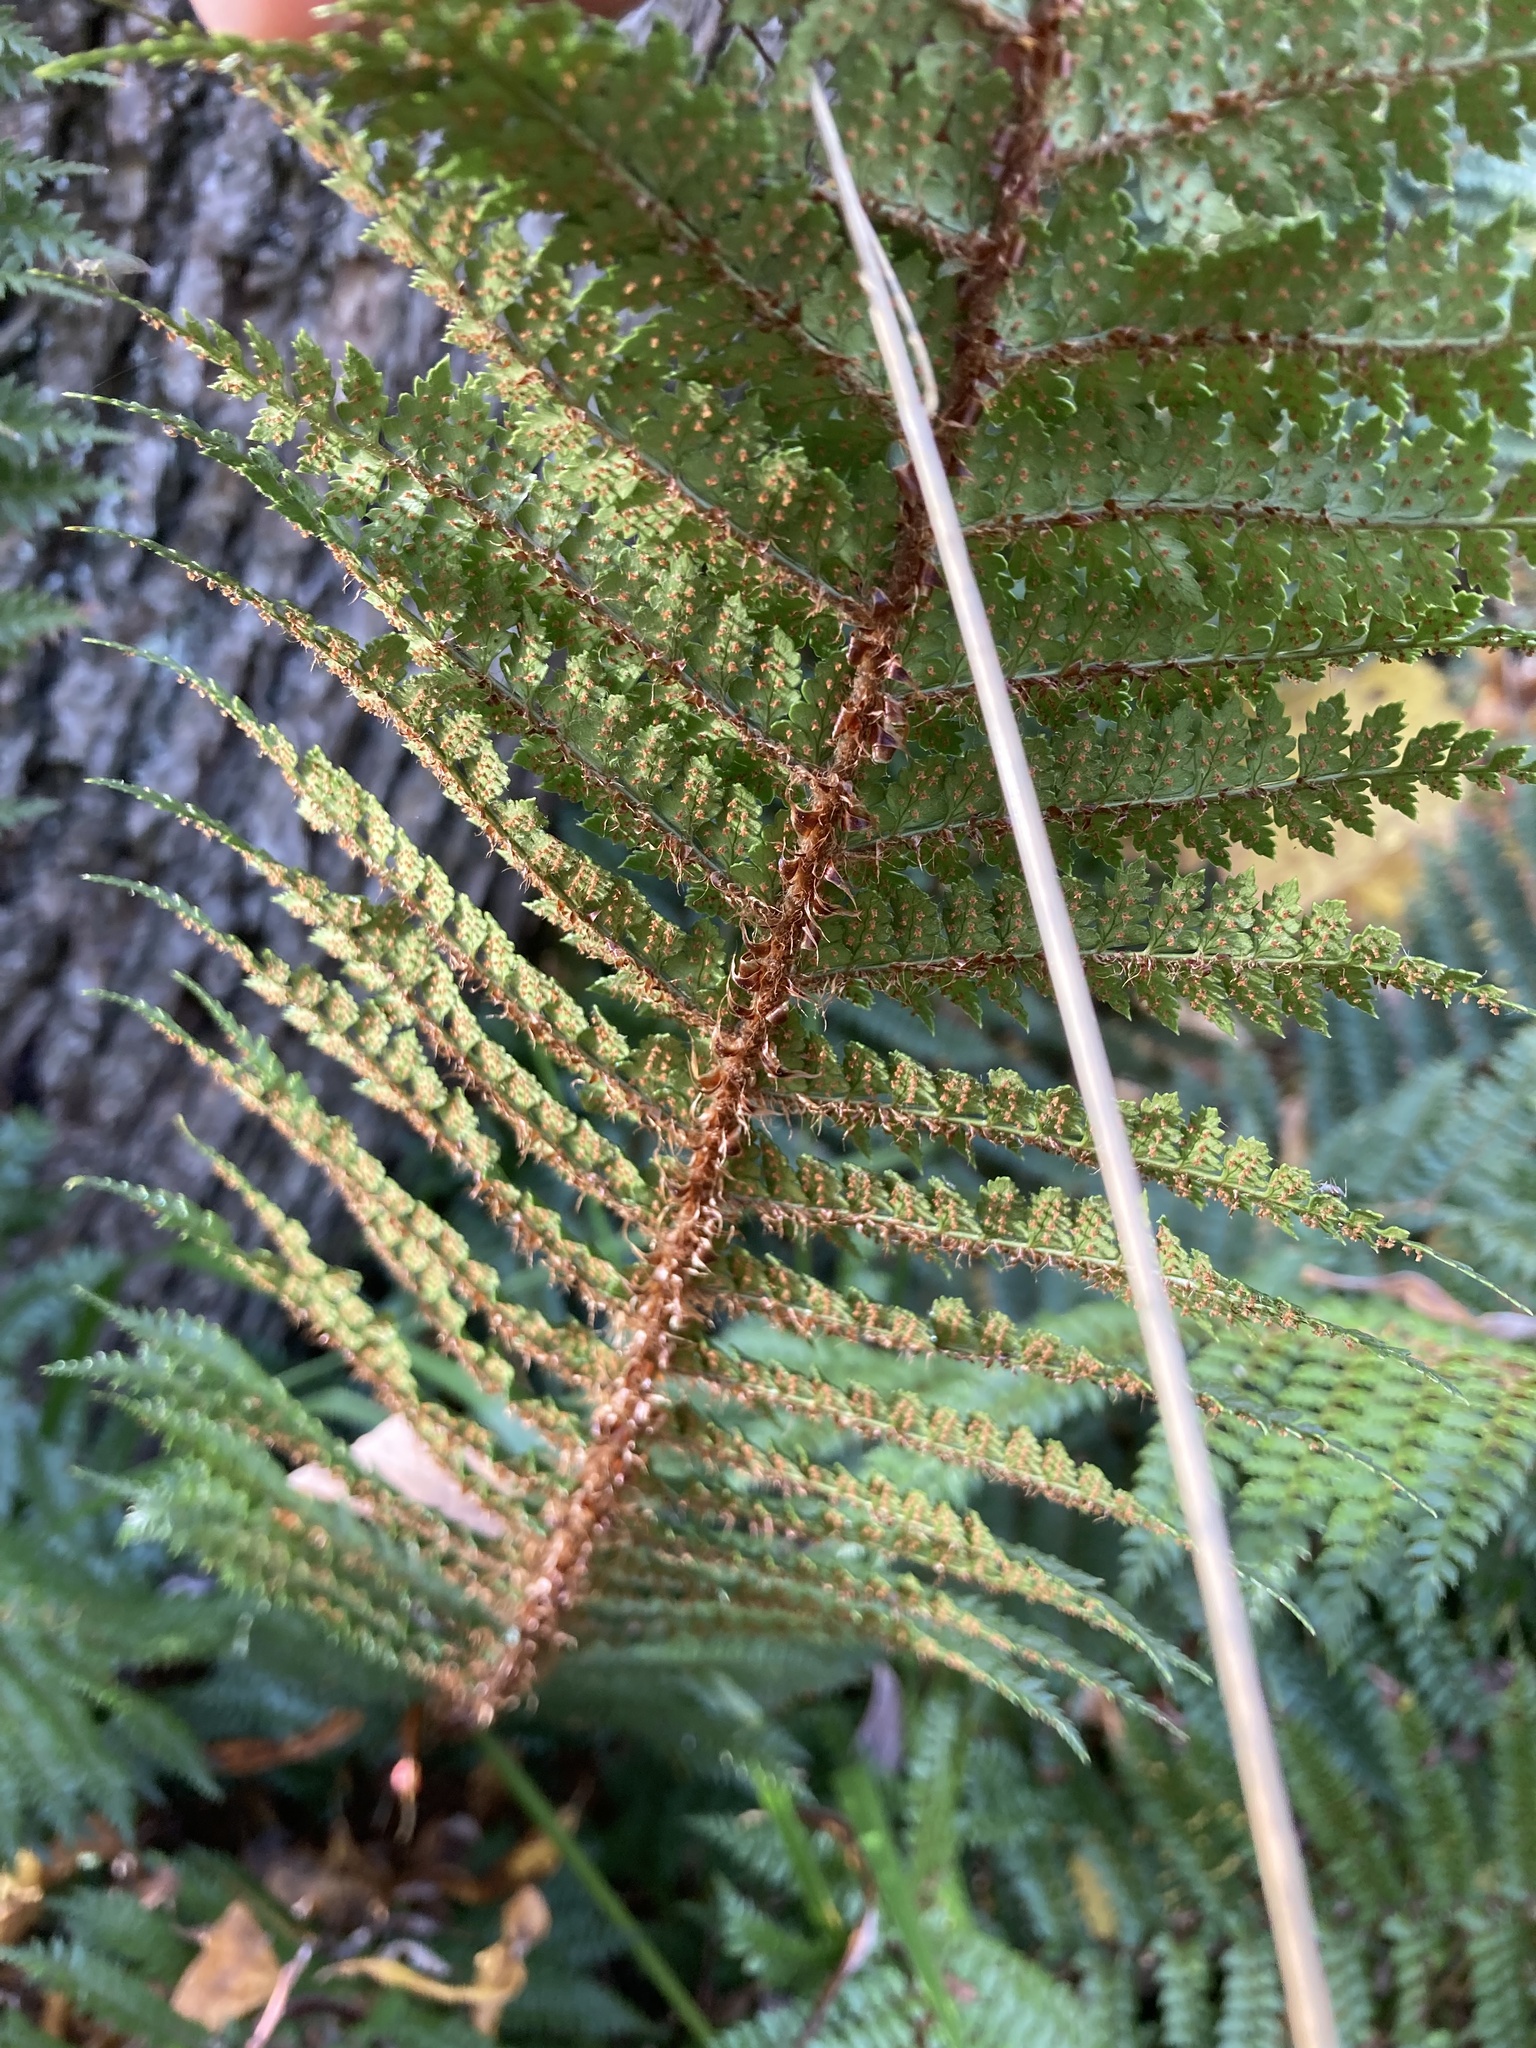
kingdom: Plantae
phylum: Tracheophyta
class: Polypodiopsida
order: Polypodiales
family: Dryopteridaceae
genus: Polystichum
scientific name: Polystichum vestitum
